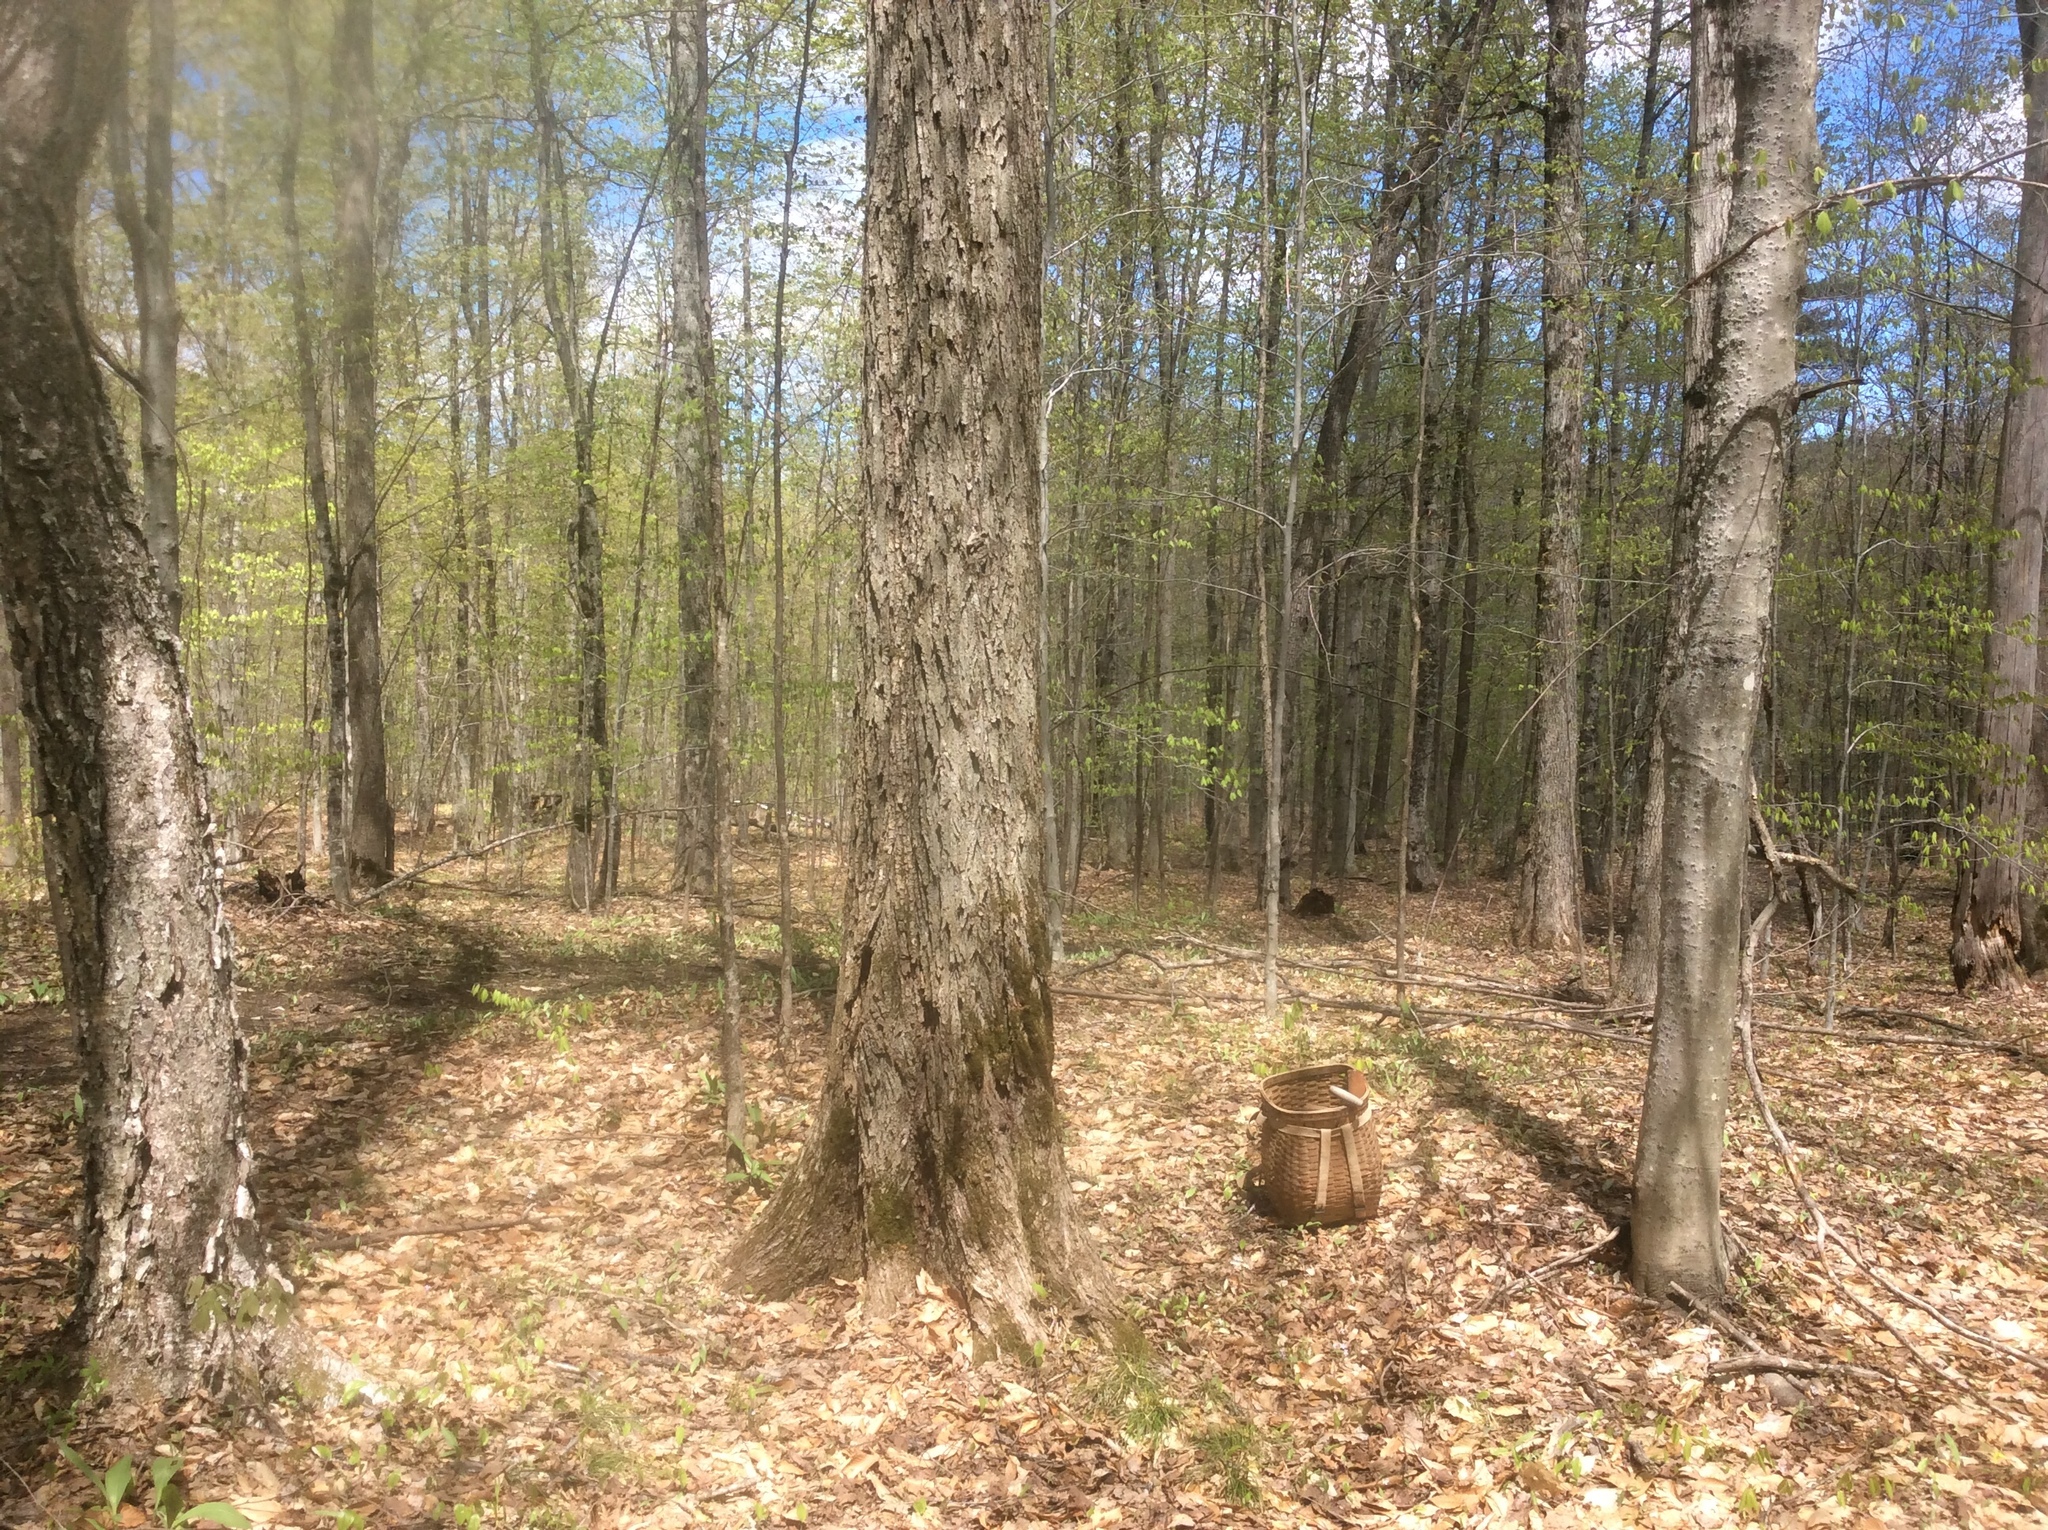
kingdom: Plantae
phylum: Tracheophyta
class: Magnoliopsida
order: Rosales
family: Ulmaceae
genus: Ulmus
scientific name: Ulmus americana
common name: American elm
